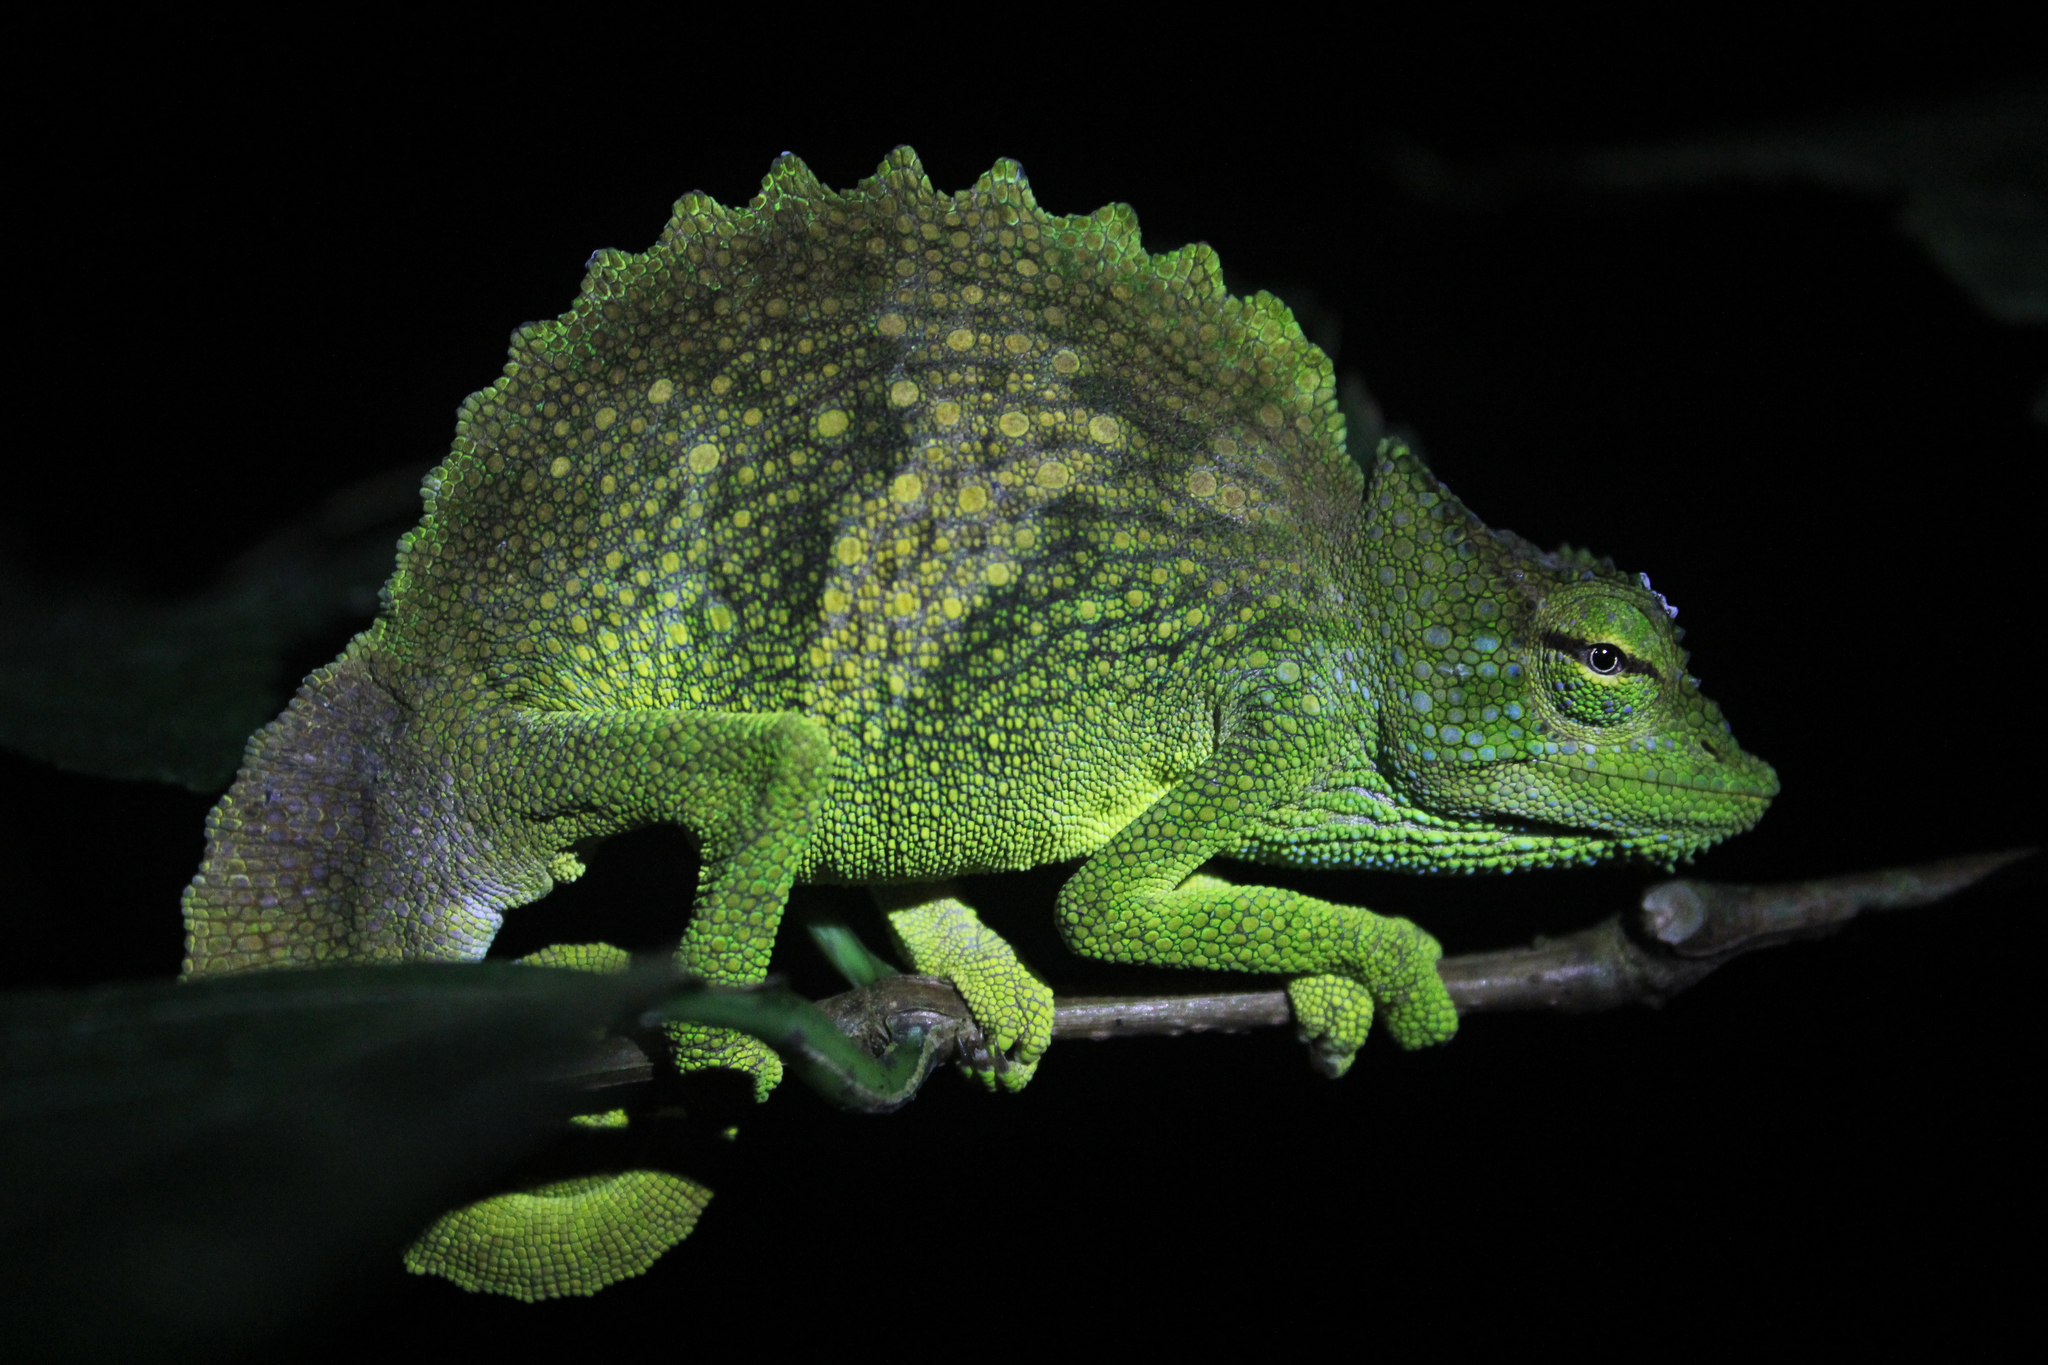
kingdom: Animalia
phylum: Chordata
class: Squamata
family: Chamaeleonidae
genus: Trioceros
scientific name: Trioceros feae
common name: Bioko montane chameleon
